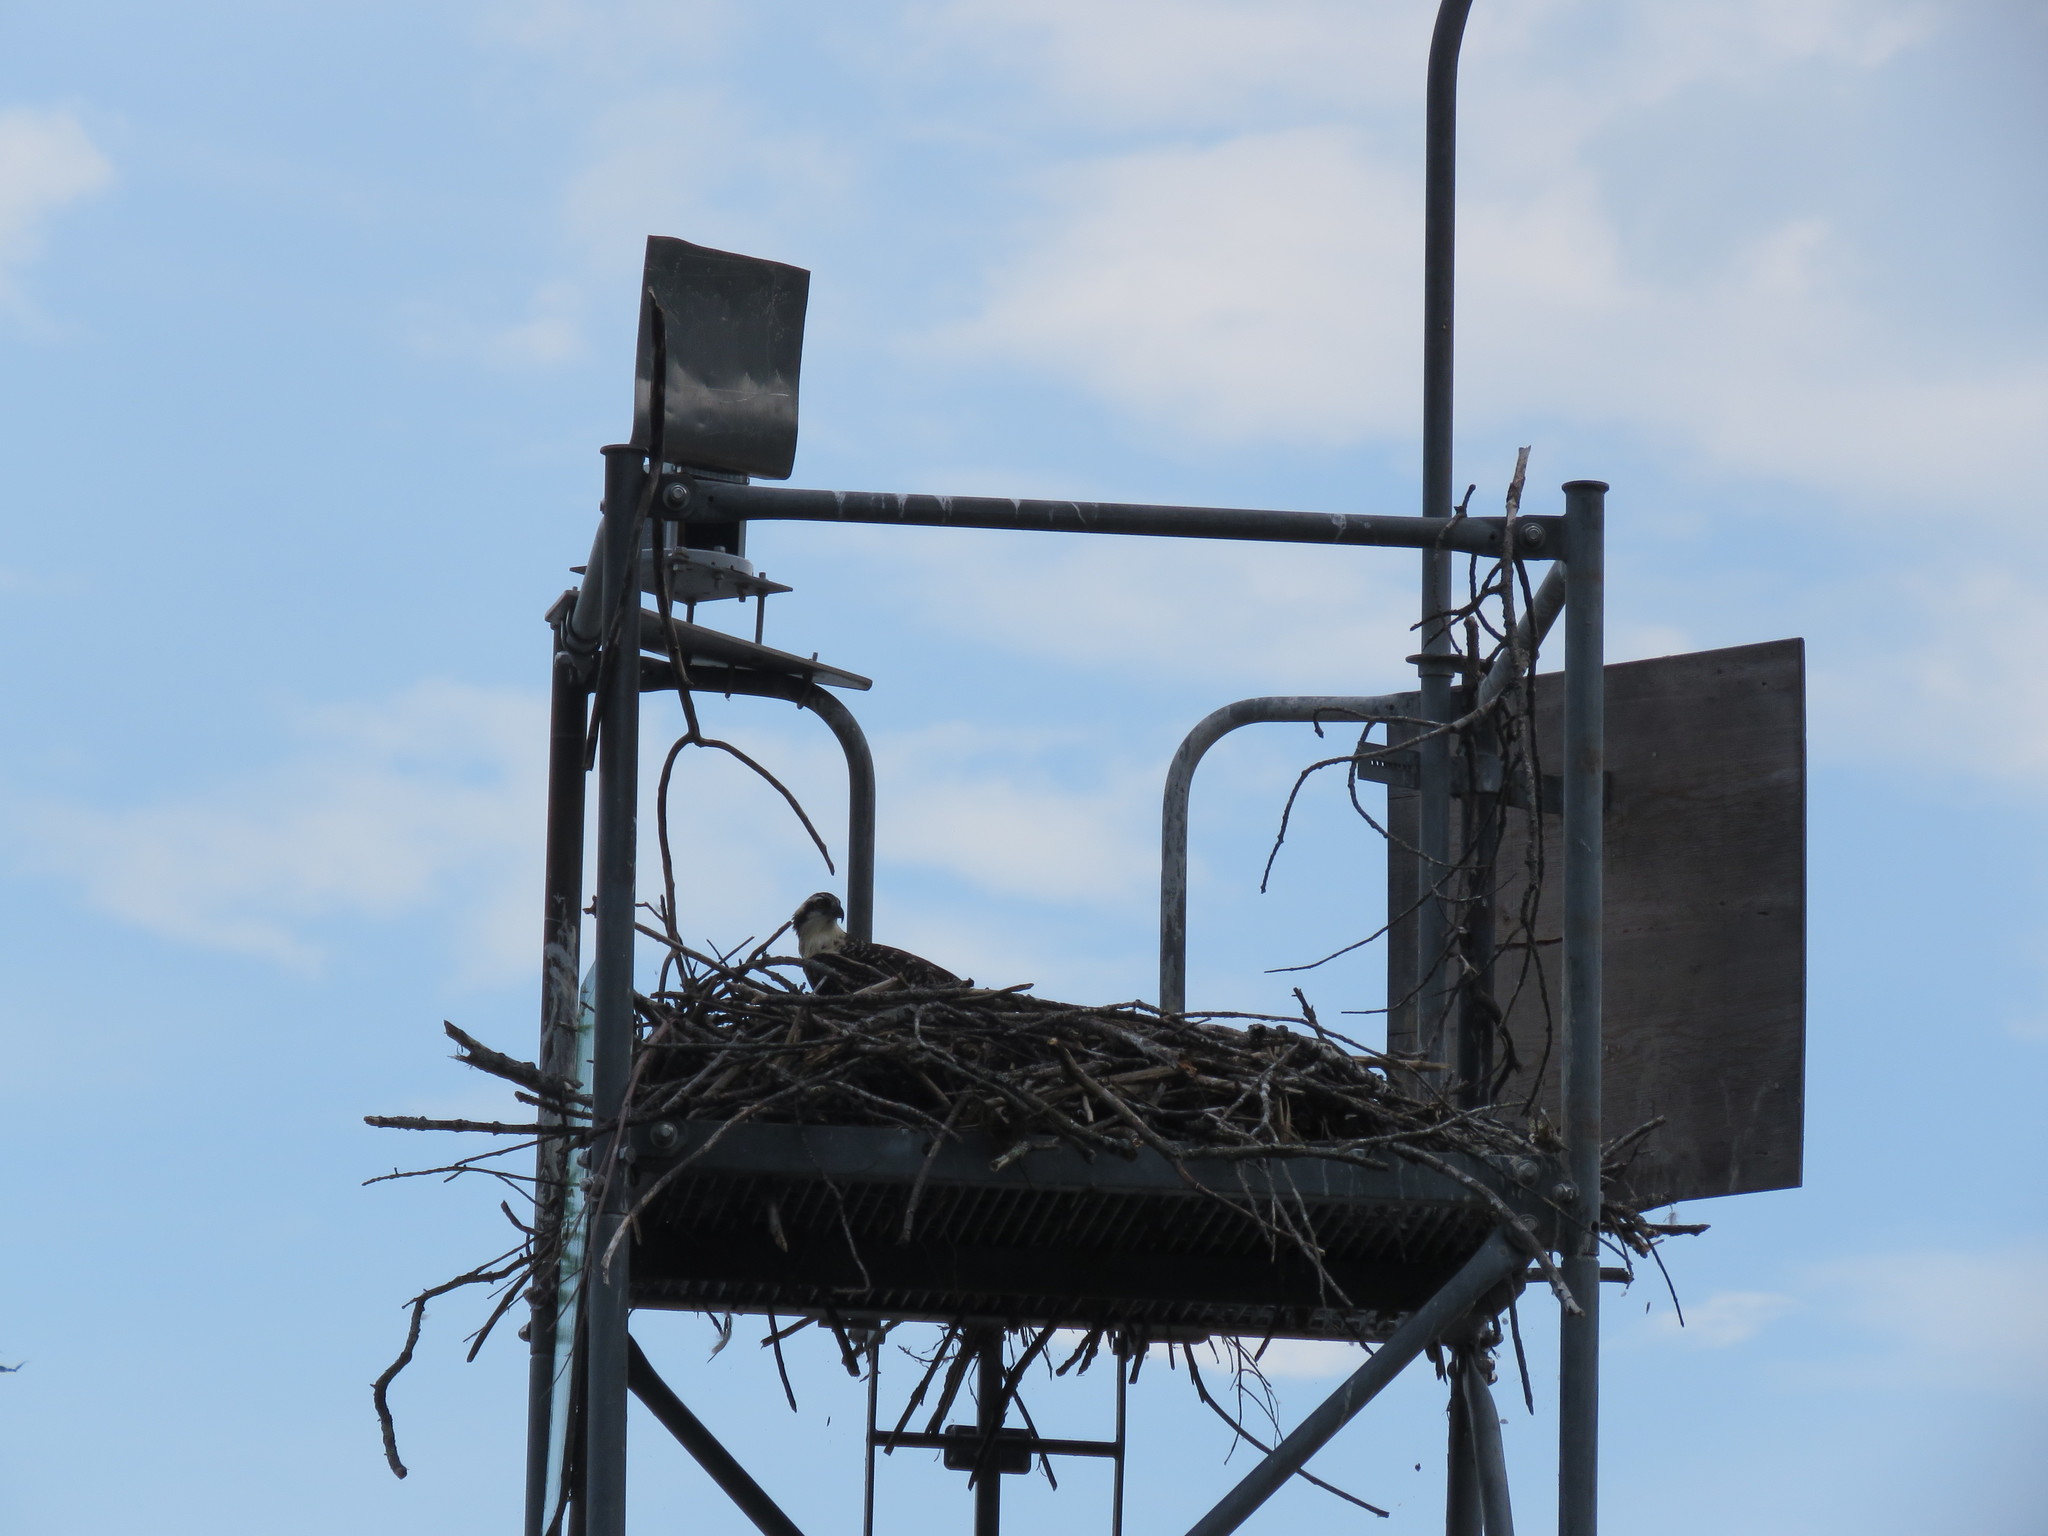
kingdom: Animalia
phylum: Chordata
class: Aves
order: Accipitriformes
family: Pandionidae
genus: Pandion
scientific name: Pandion haliaetus
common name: Osprey
